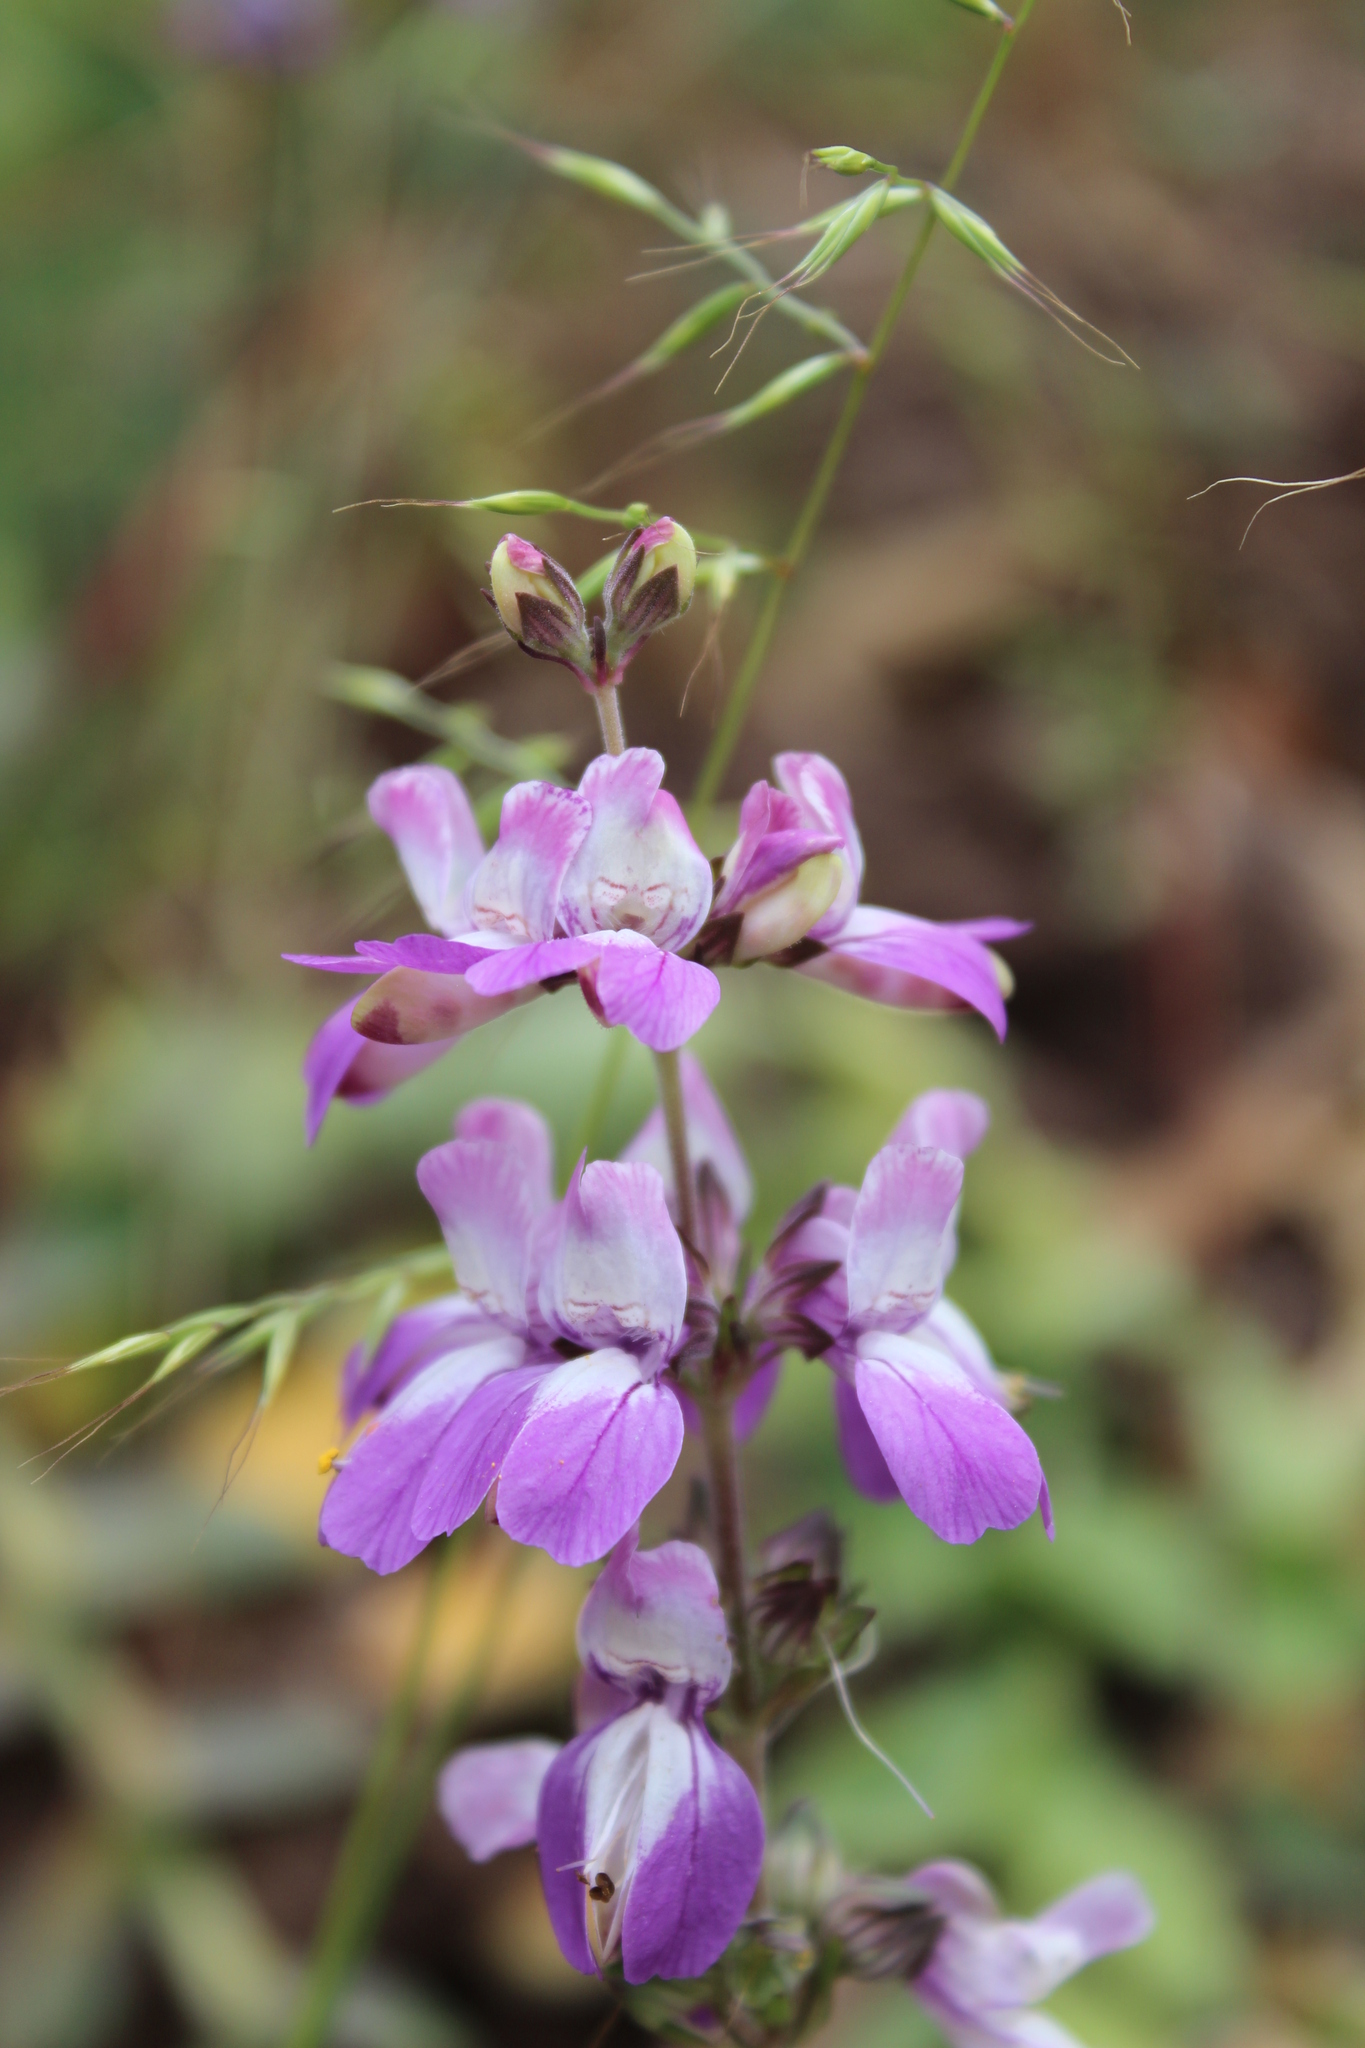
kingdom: Plantae
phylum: Tracheophyta
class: Magnoliopsida
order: Lamiales
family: Plantaginaceae
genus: Collinsia
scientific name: Collinsia heterophylla
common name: Chinese-houses
